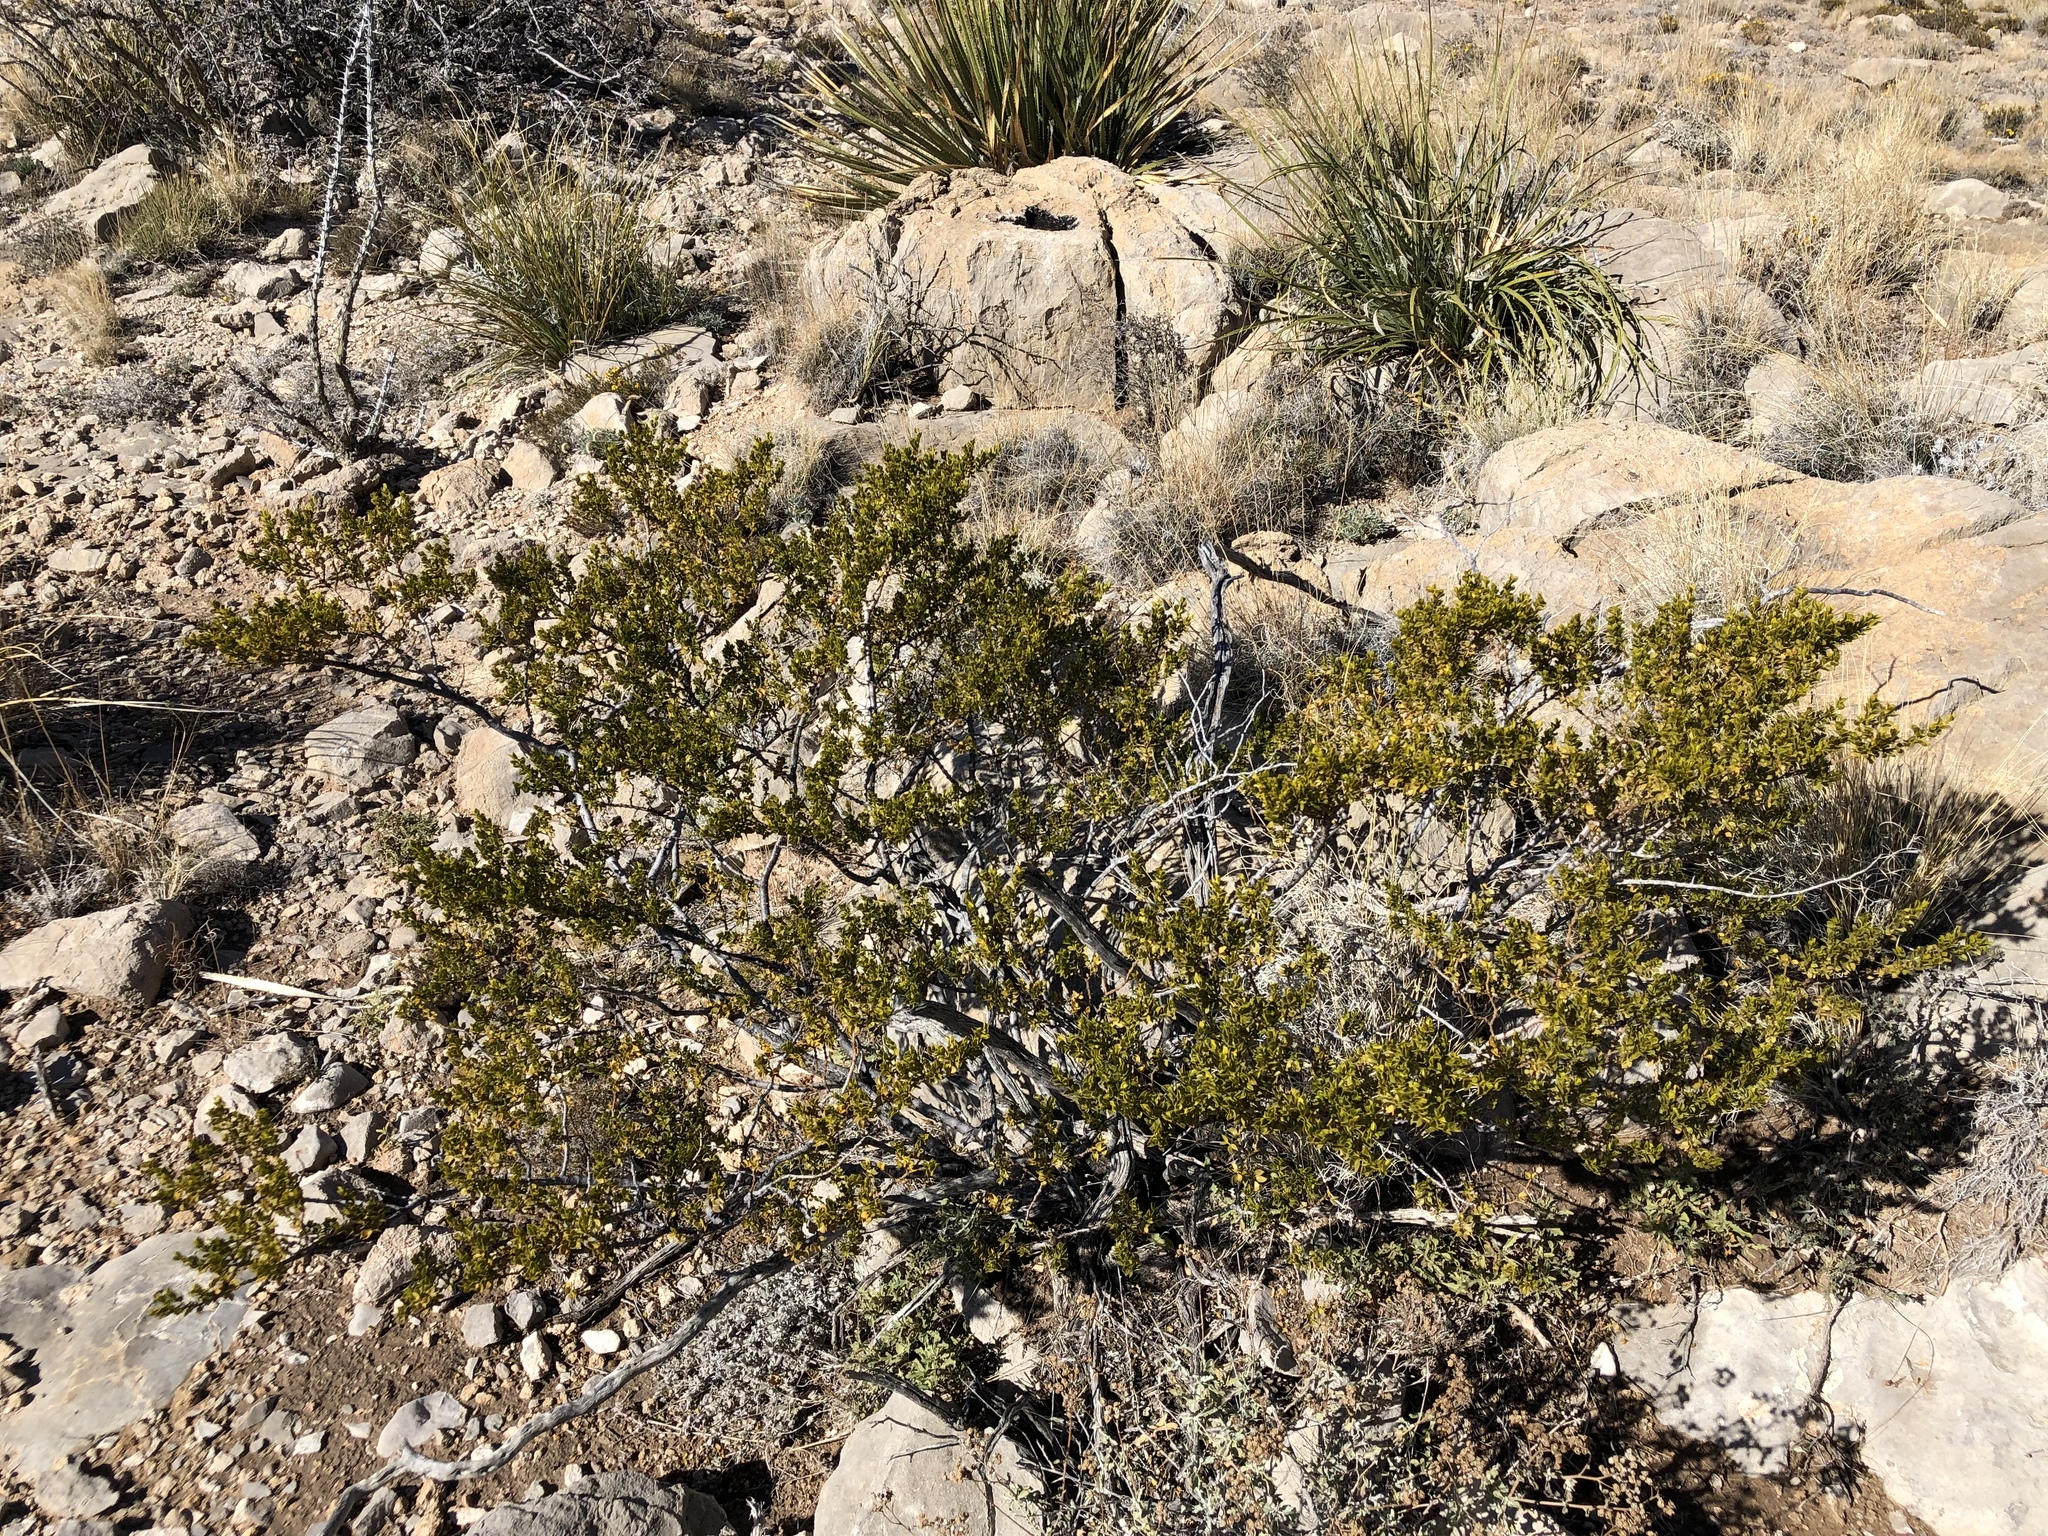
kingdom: Plantae
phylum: Tracheophyta
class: Magnoliopsida
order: Zygophyllales
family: Zygophyllaceae
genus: Larrea
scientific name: Larrea tridentata
